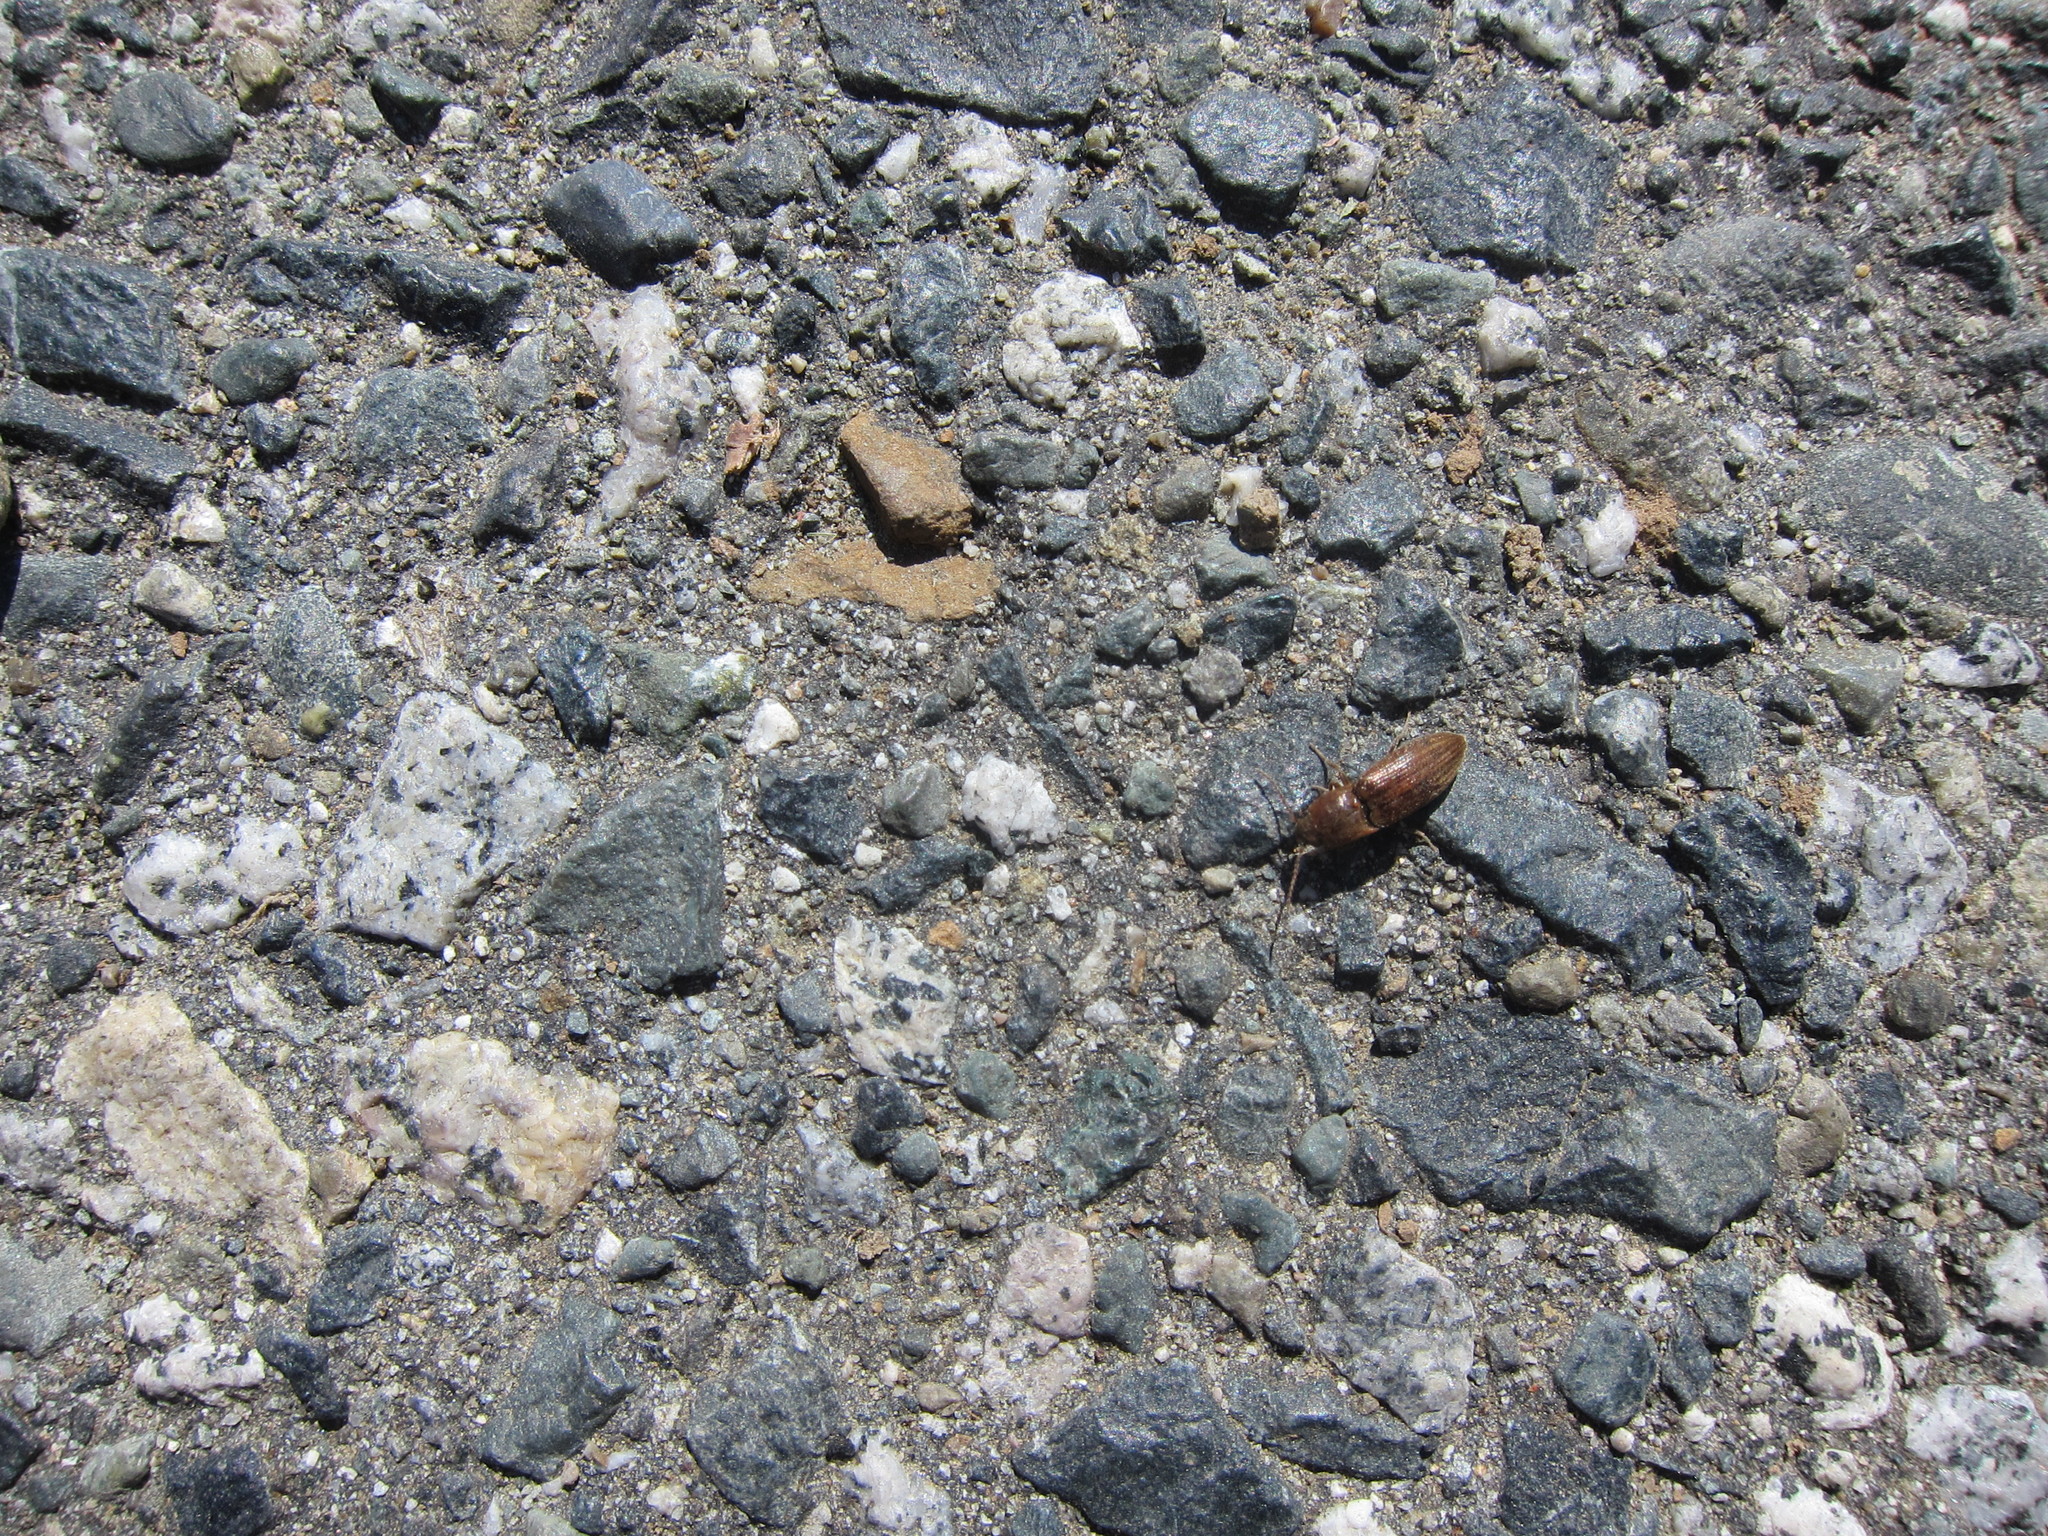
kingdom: Animalia
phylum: Arthropoda
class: Insecta
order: Coleoptera
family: Elateridae
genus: Agriotes
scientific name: Agriotes lineatus
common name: Lined click beetle
